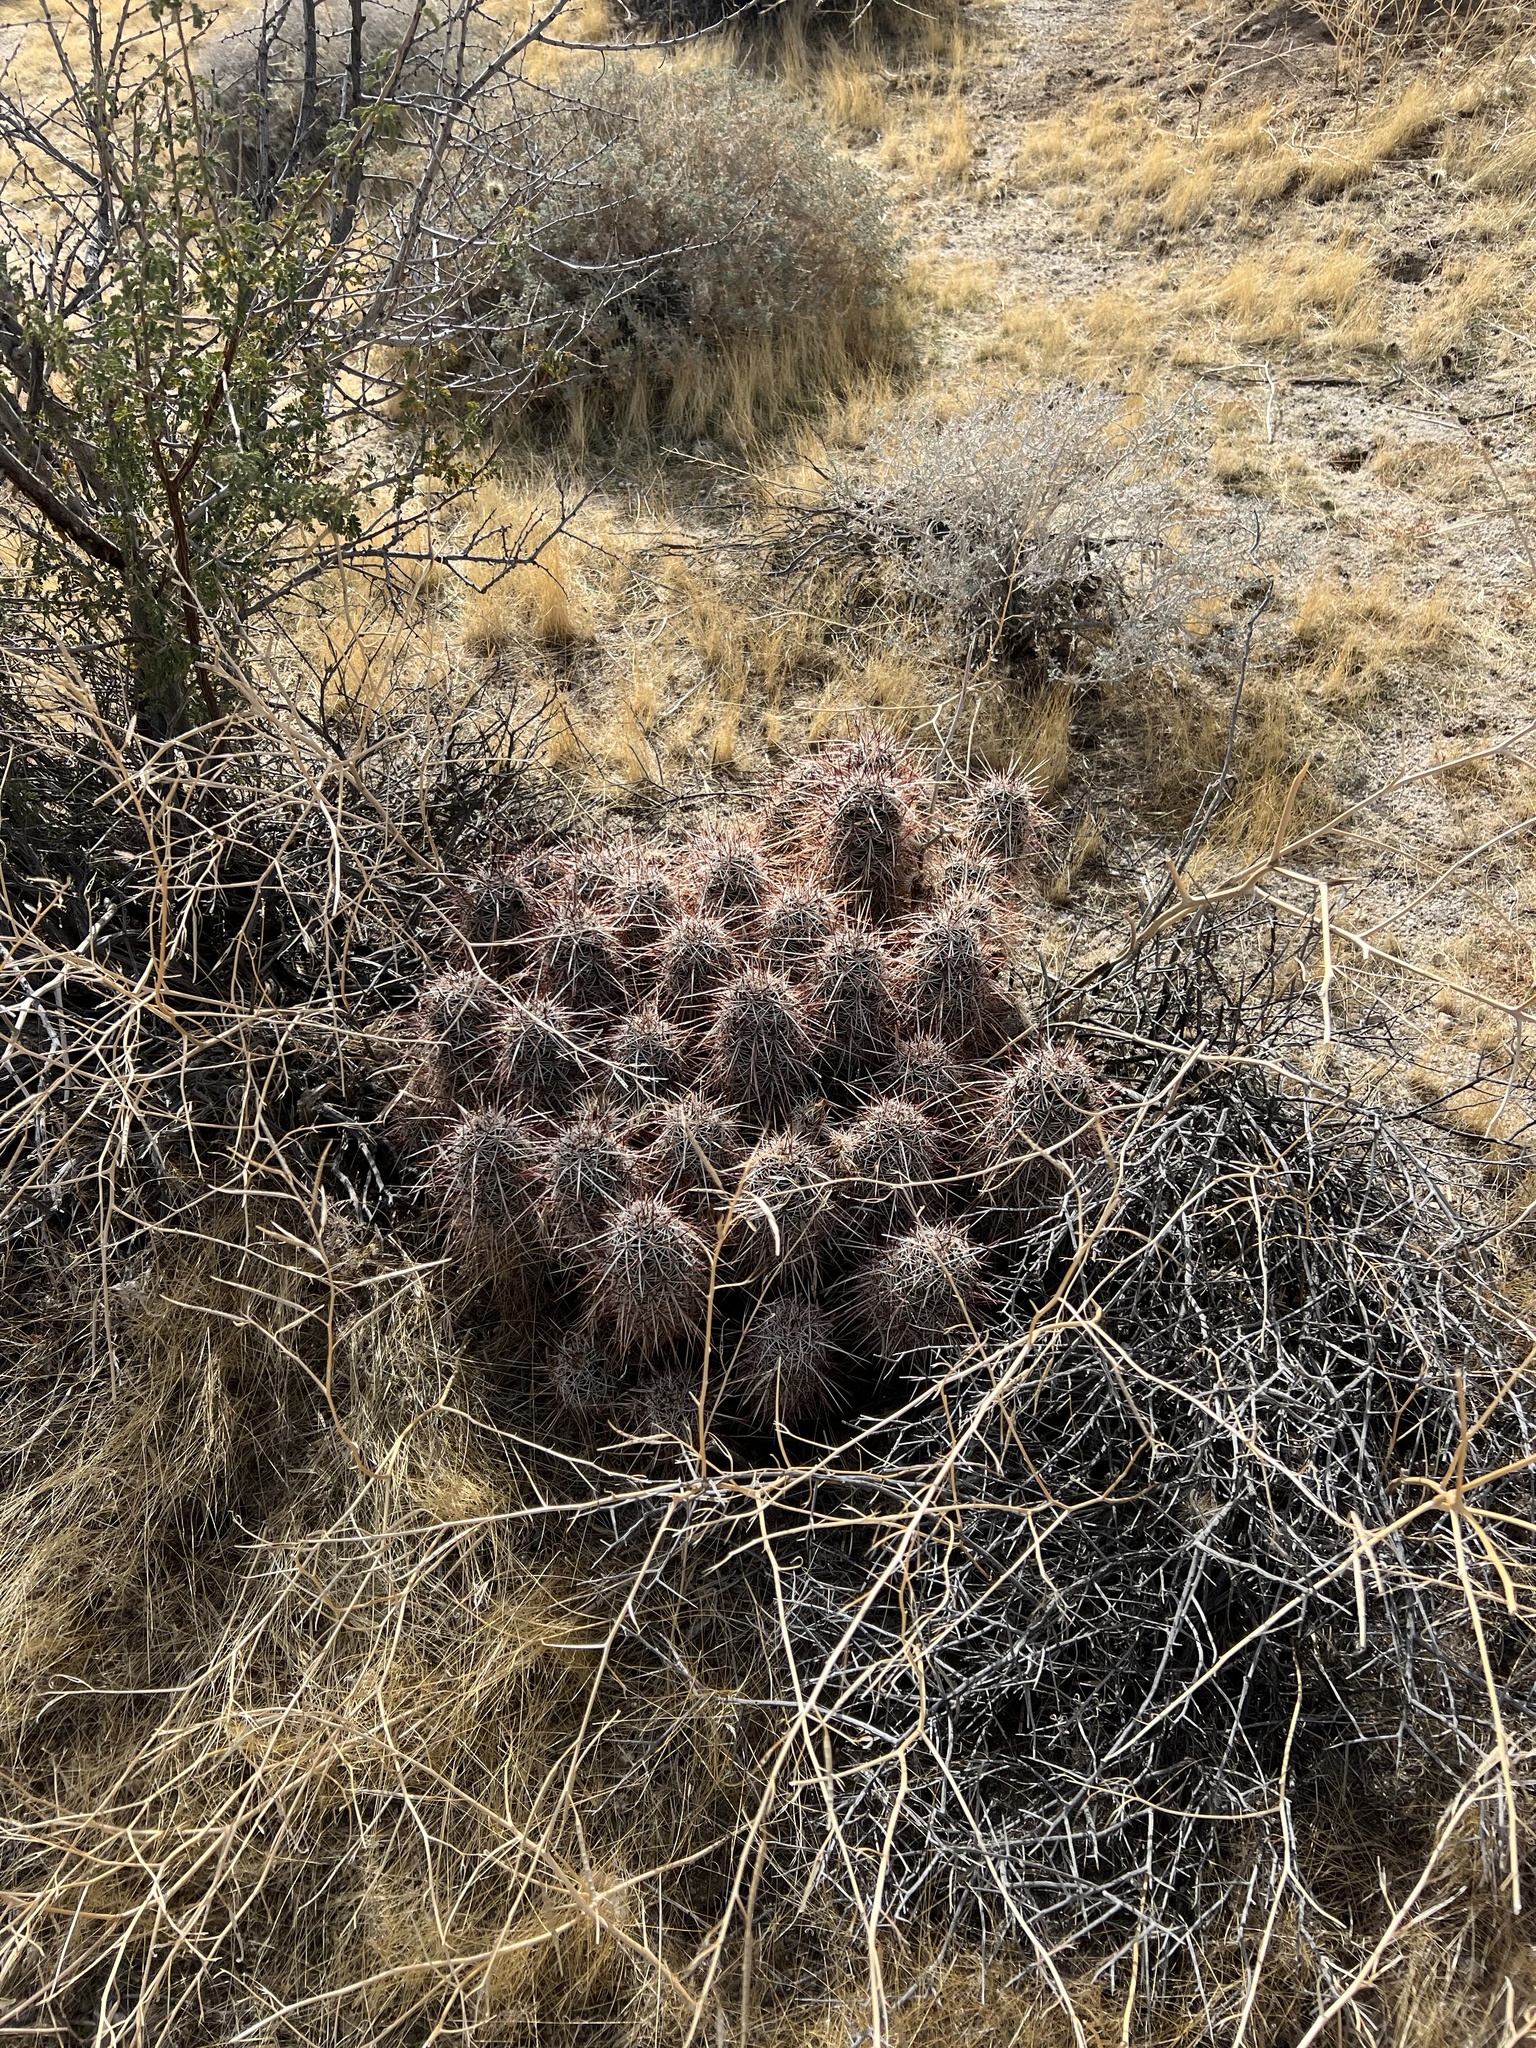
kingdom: Plantae
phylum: Tracheophyta
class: Magnoliopsida
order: Caryophyllales
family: Cactaceae
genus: Echinocereus
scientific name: Echinocereus engelmannii
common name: Engelmann's hedgehog cactus
